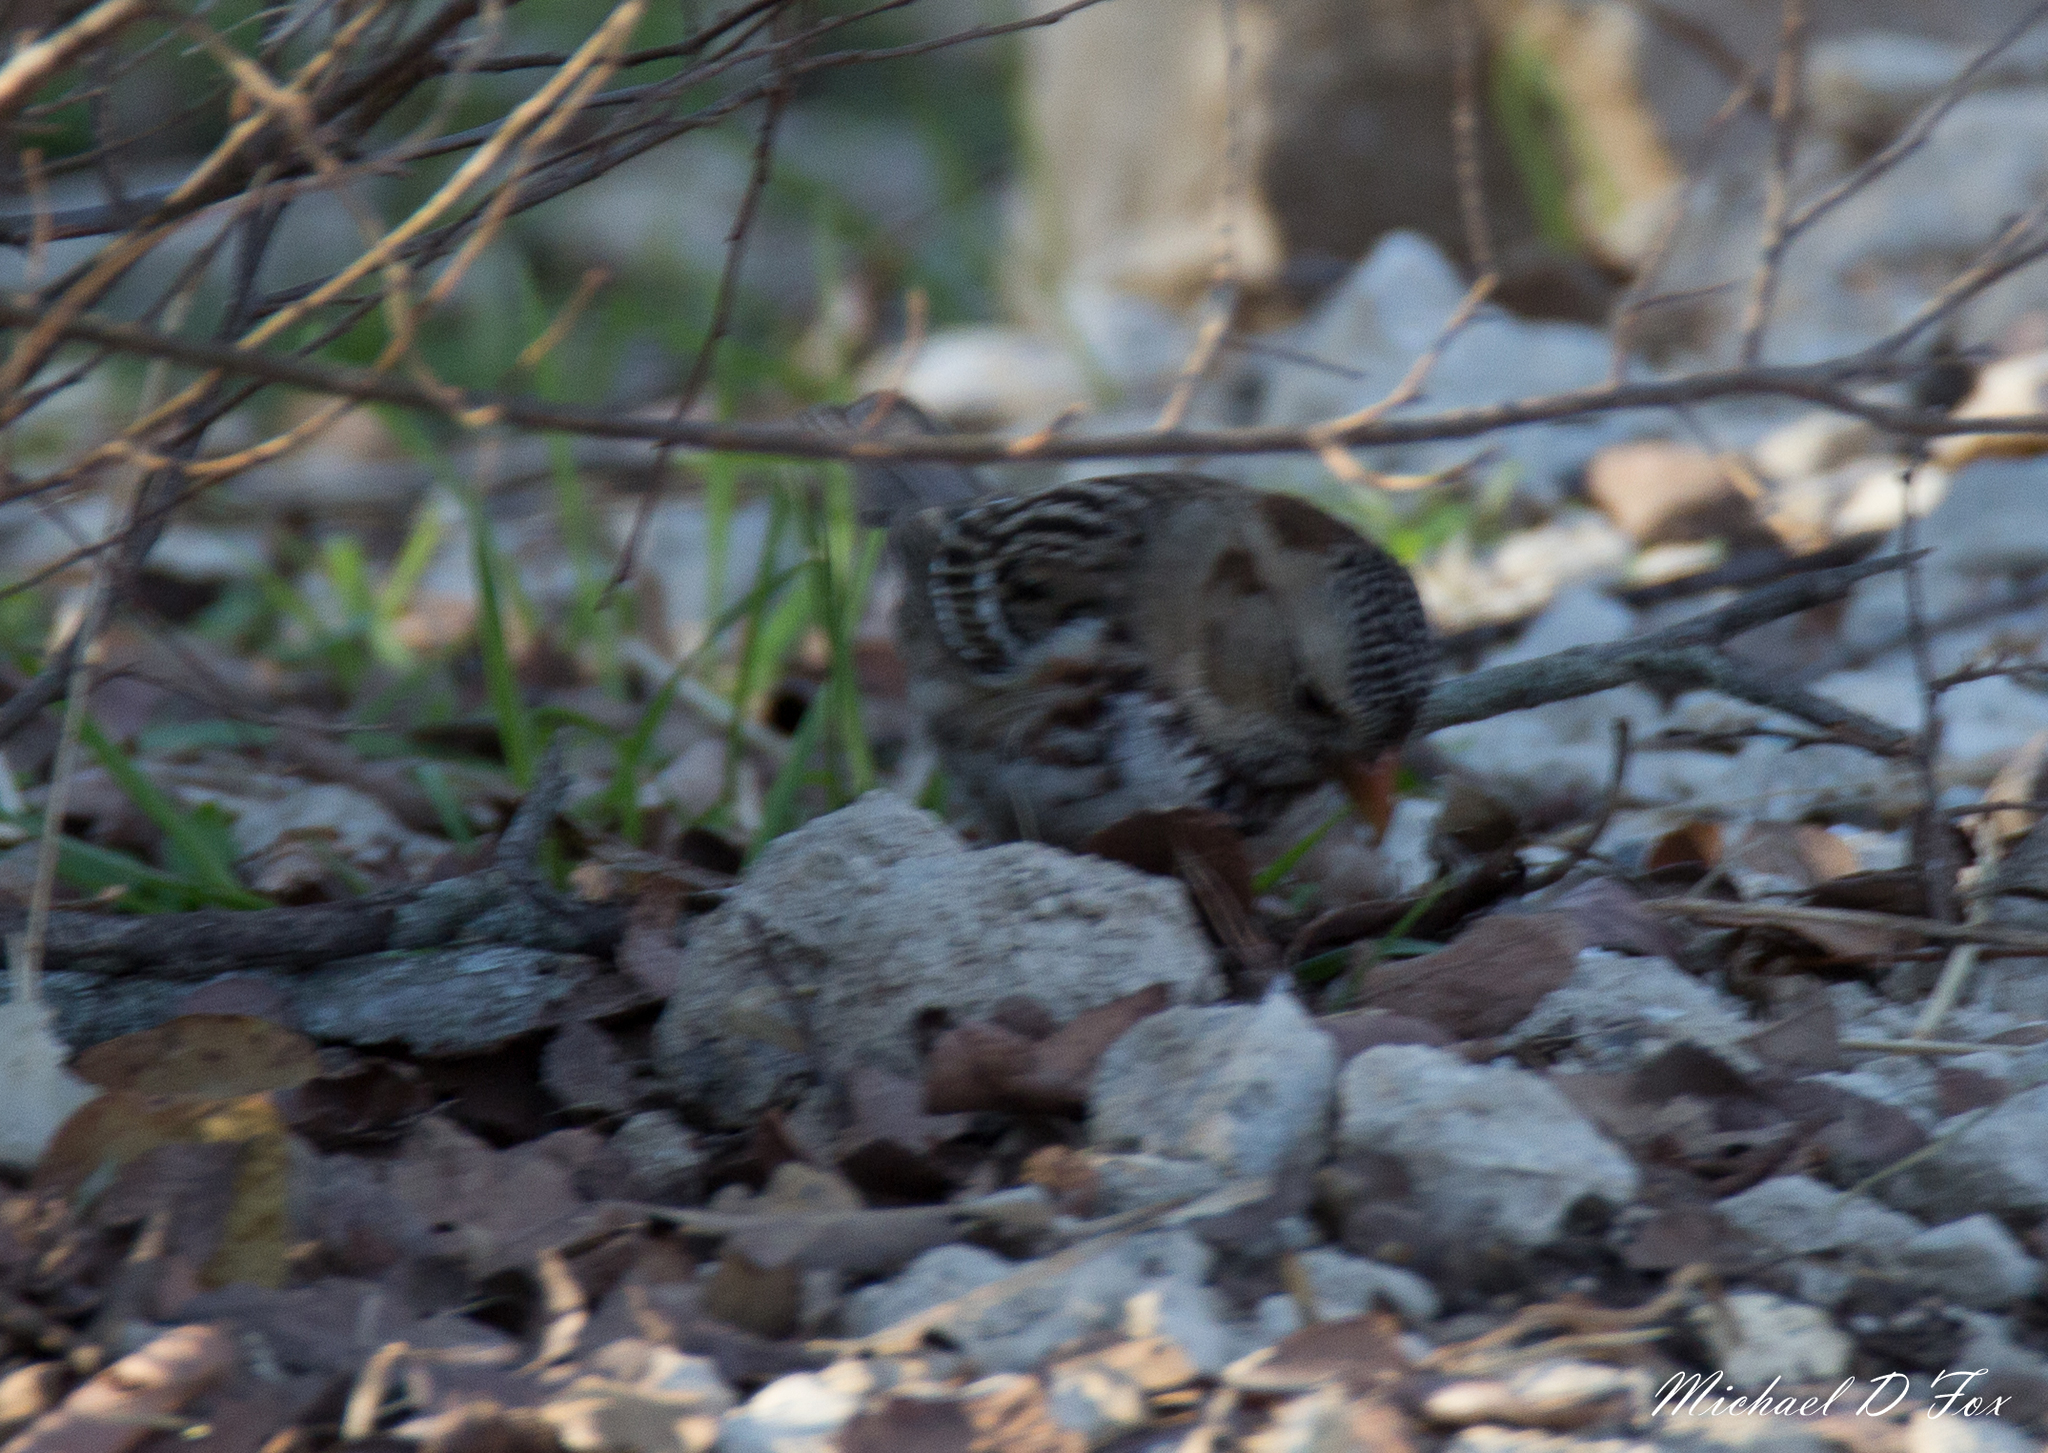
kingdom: Animalia
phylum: Chordata
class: Aves
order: Passeriformes
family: Passerellidae
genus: Zonotrichia
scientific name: Zonotrichia querula
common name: Harris's sparrow
